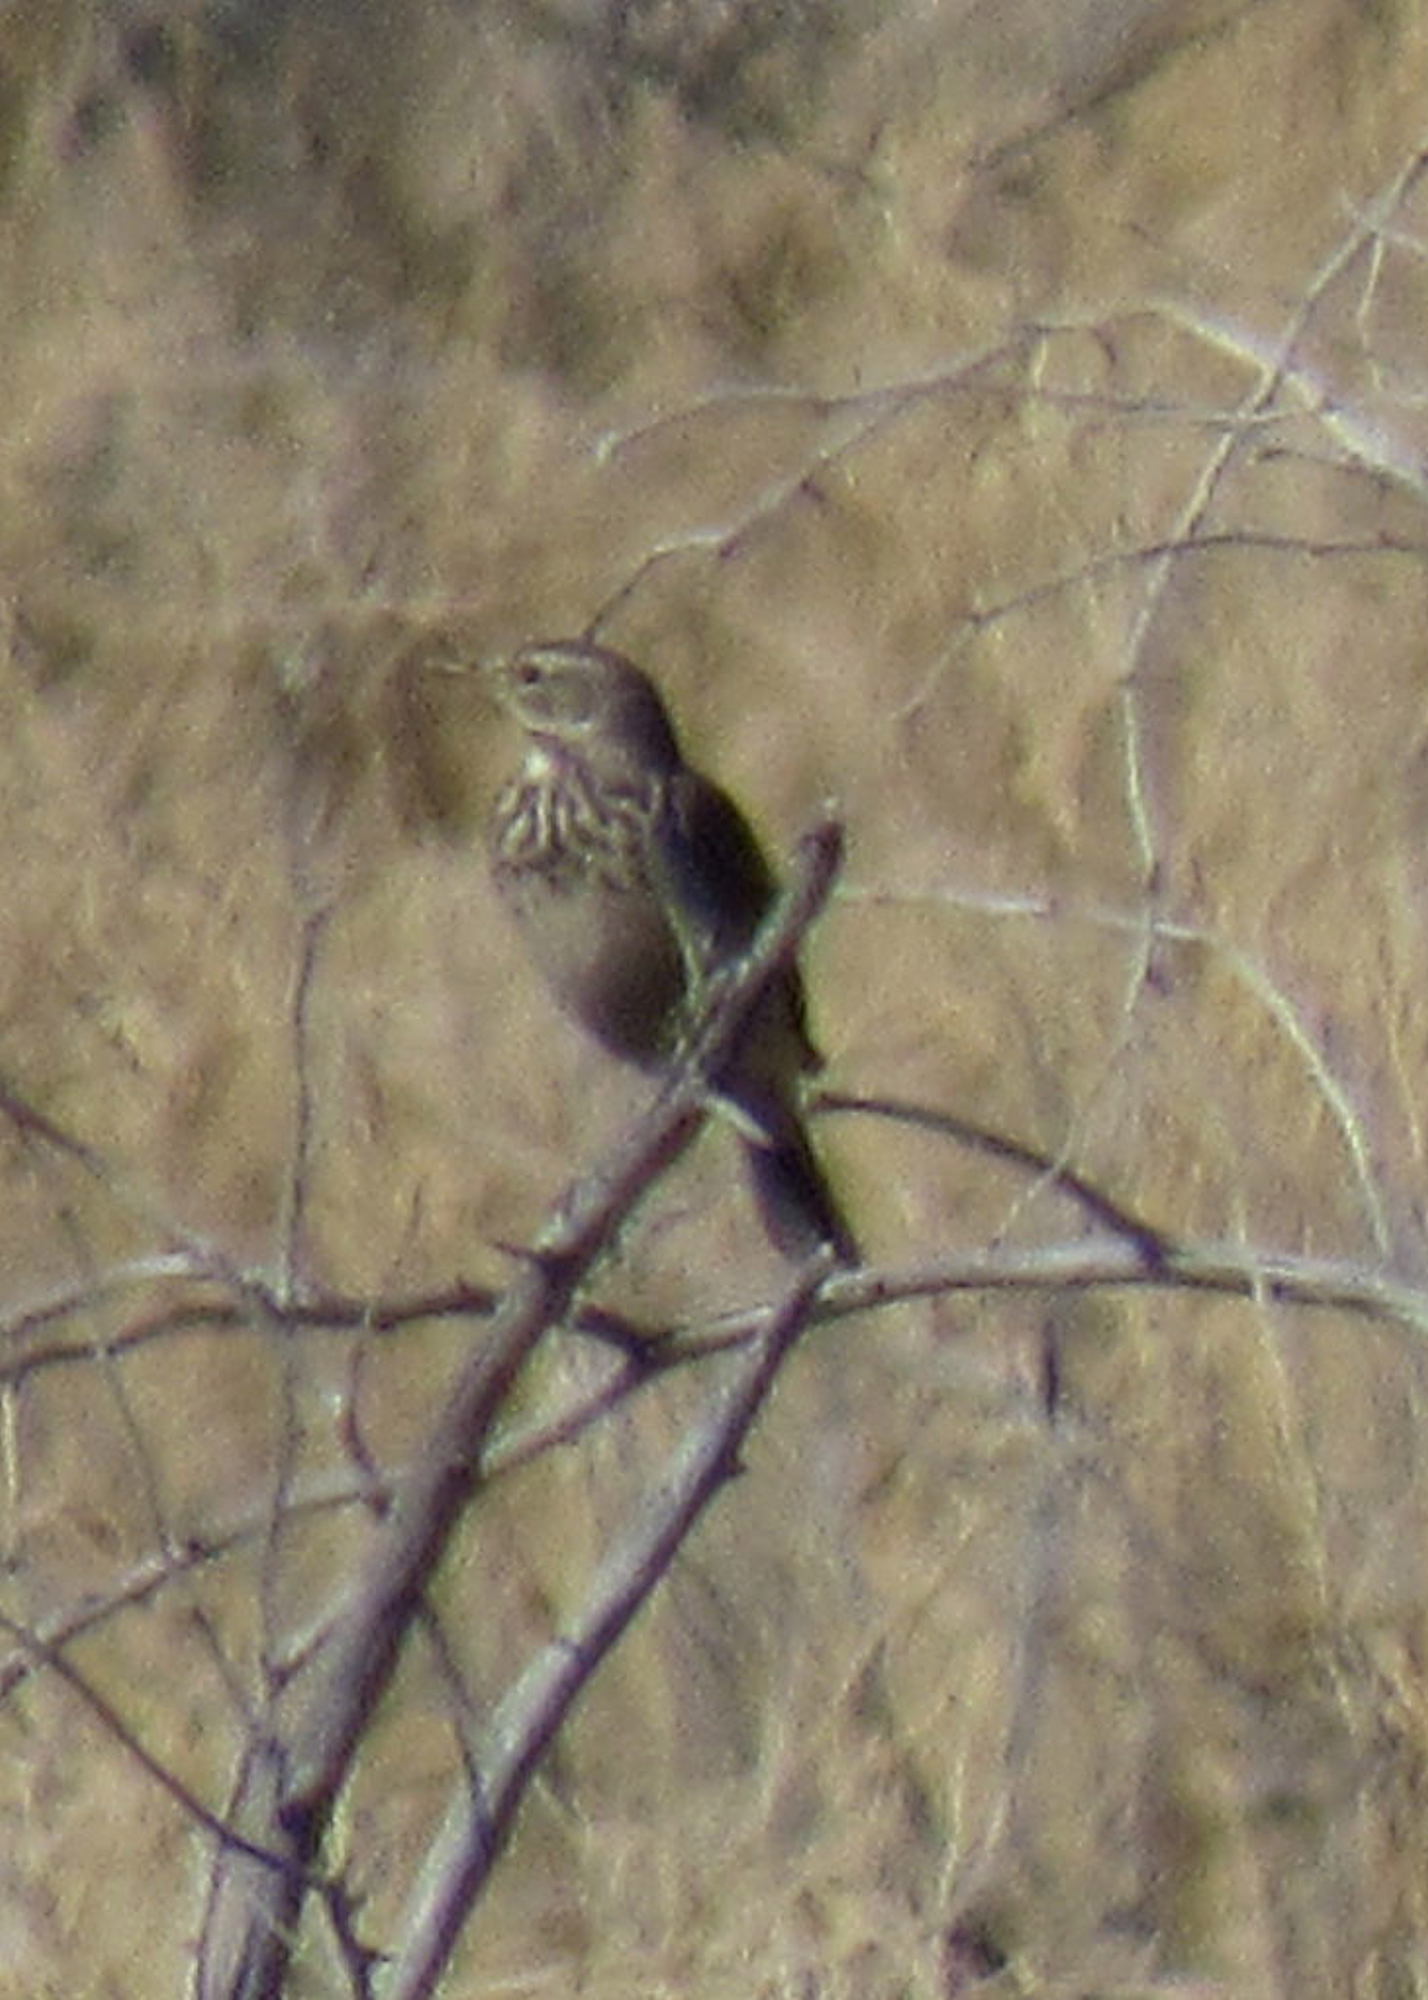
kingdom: Animalia
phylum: Chordata
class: Aves
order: Passeriformes
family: Motacillidae
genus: Anthus
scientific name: Anthus rubescens
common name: Buff-bellied pipit
